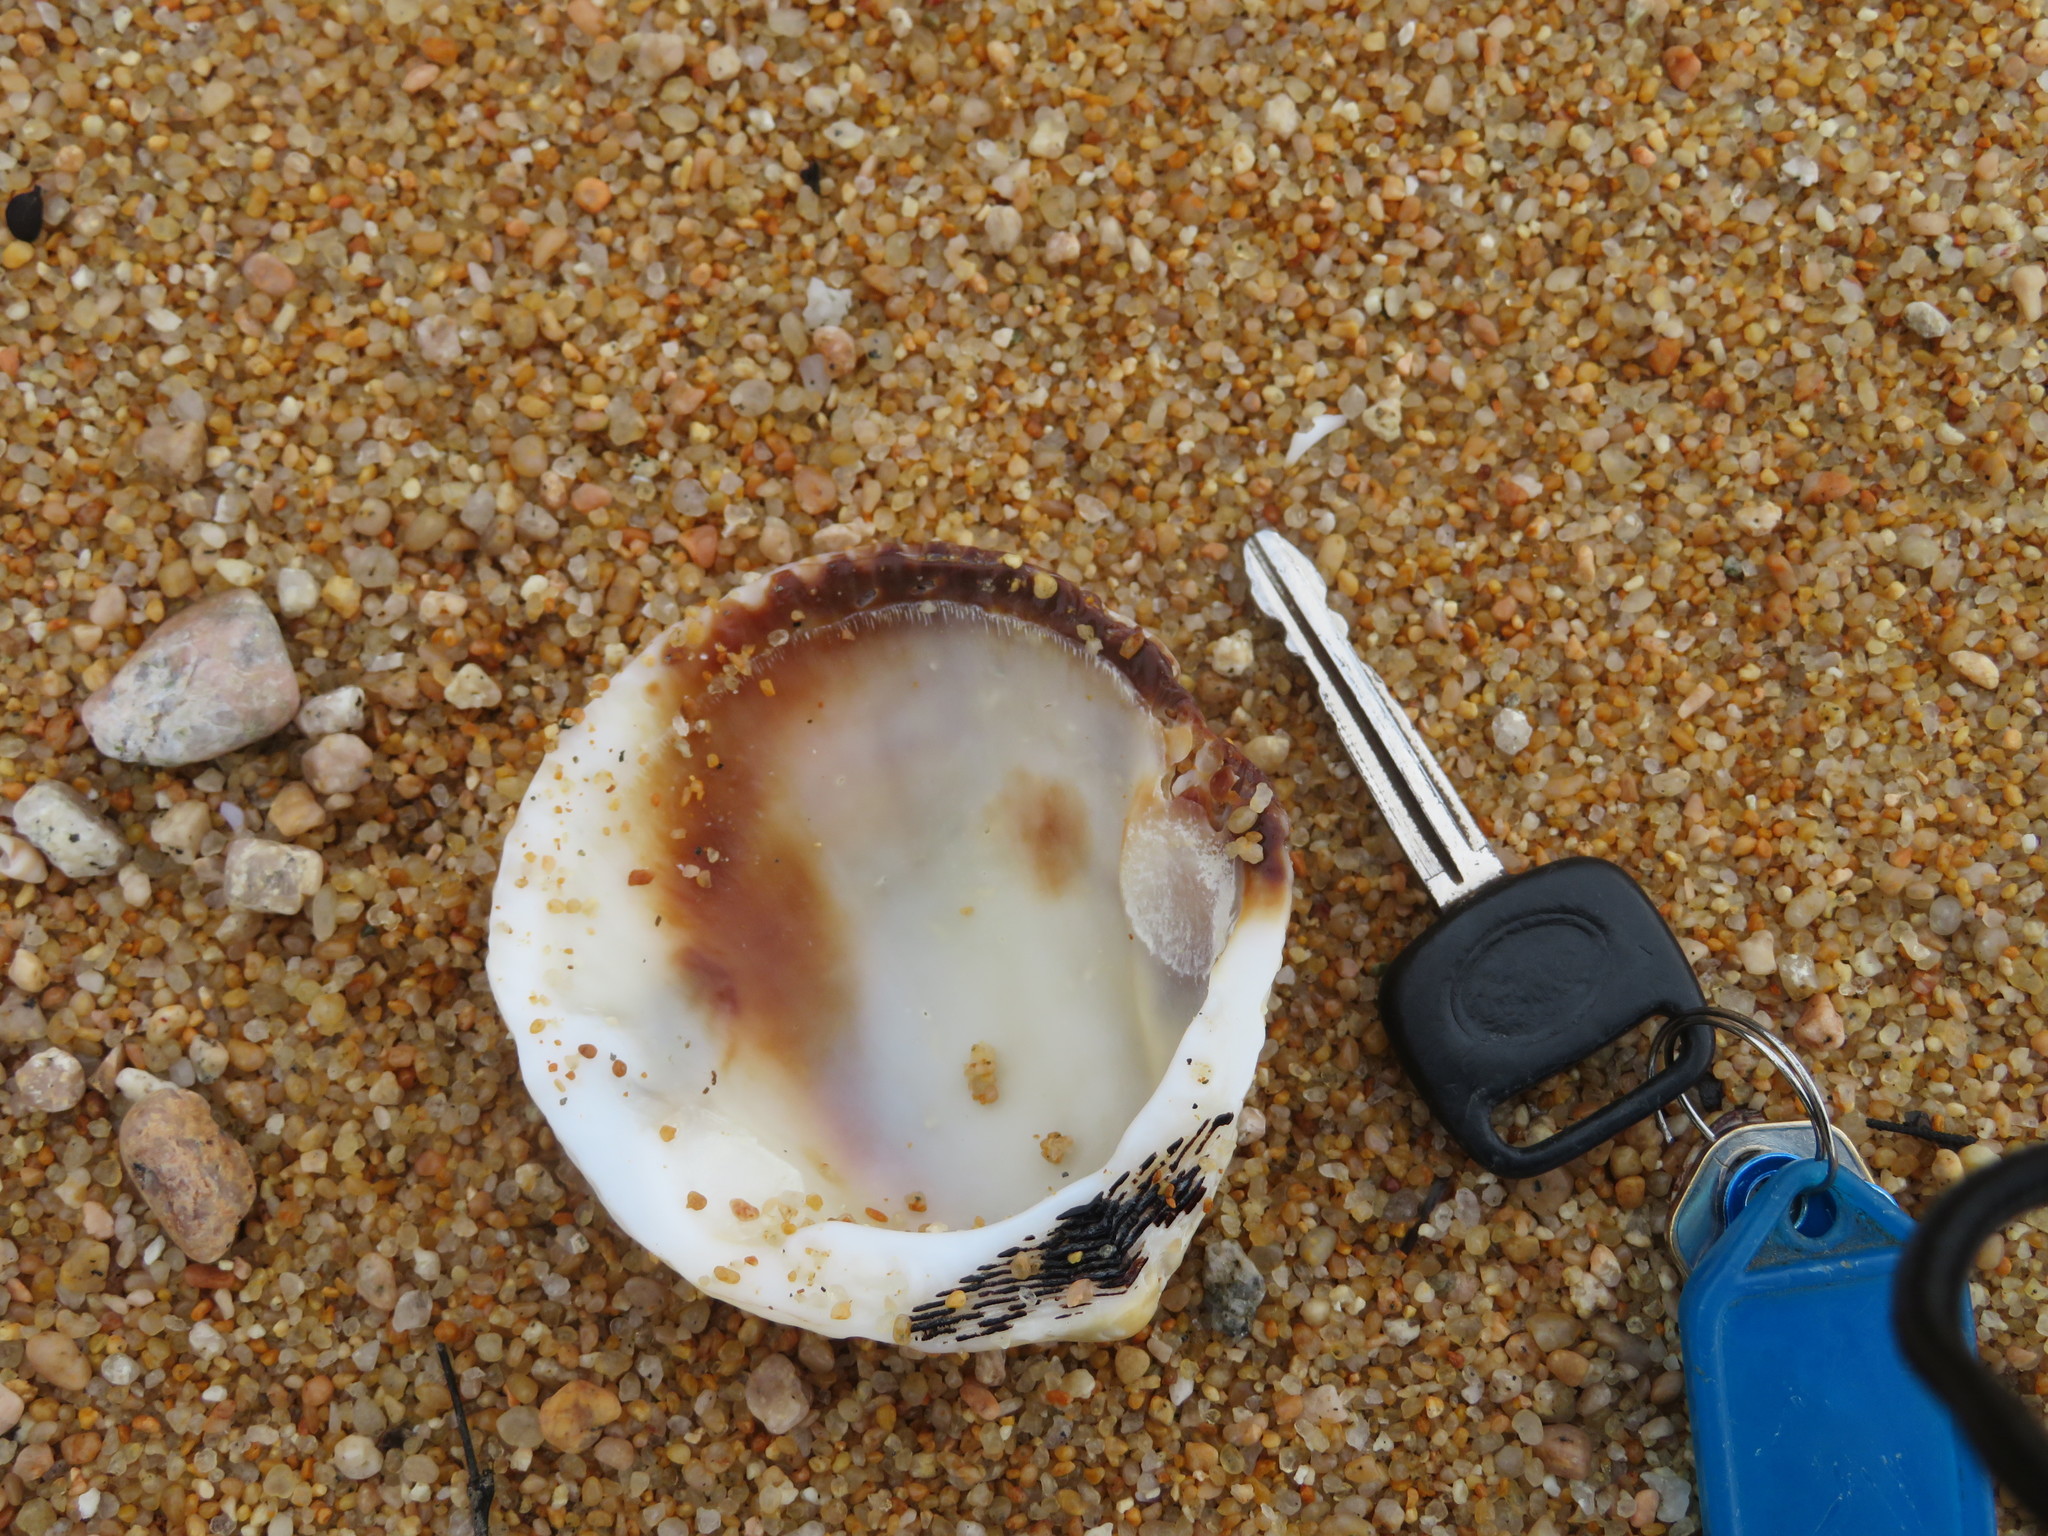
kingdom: Animalia
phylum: Mollusca
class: Bivalvia
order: Arcida
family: Glycymerididae
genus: Tucetona
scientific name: Tucetona laticostata
